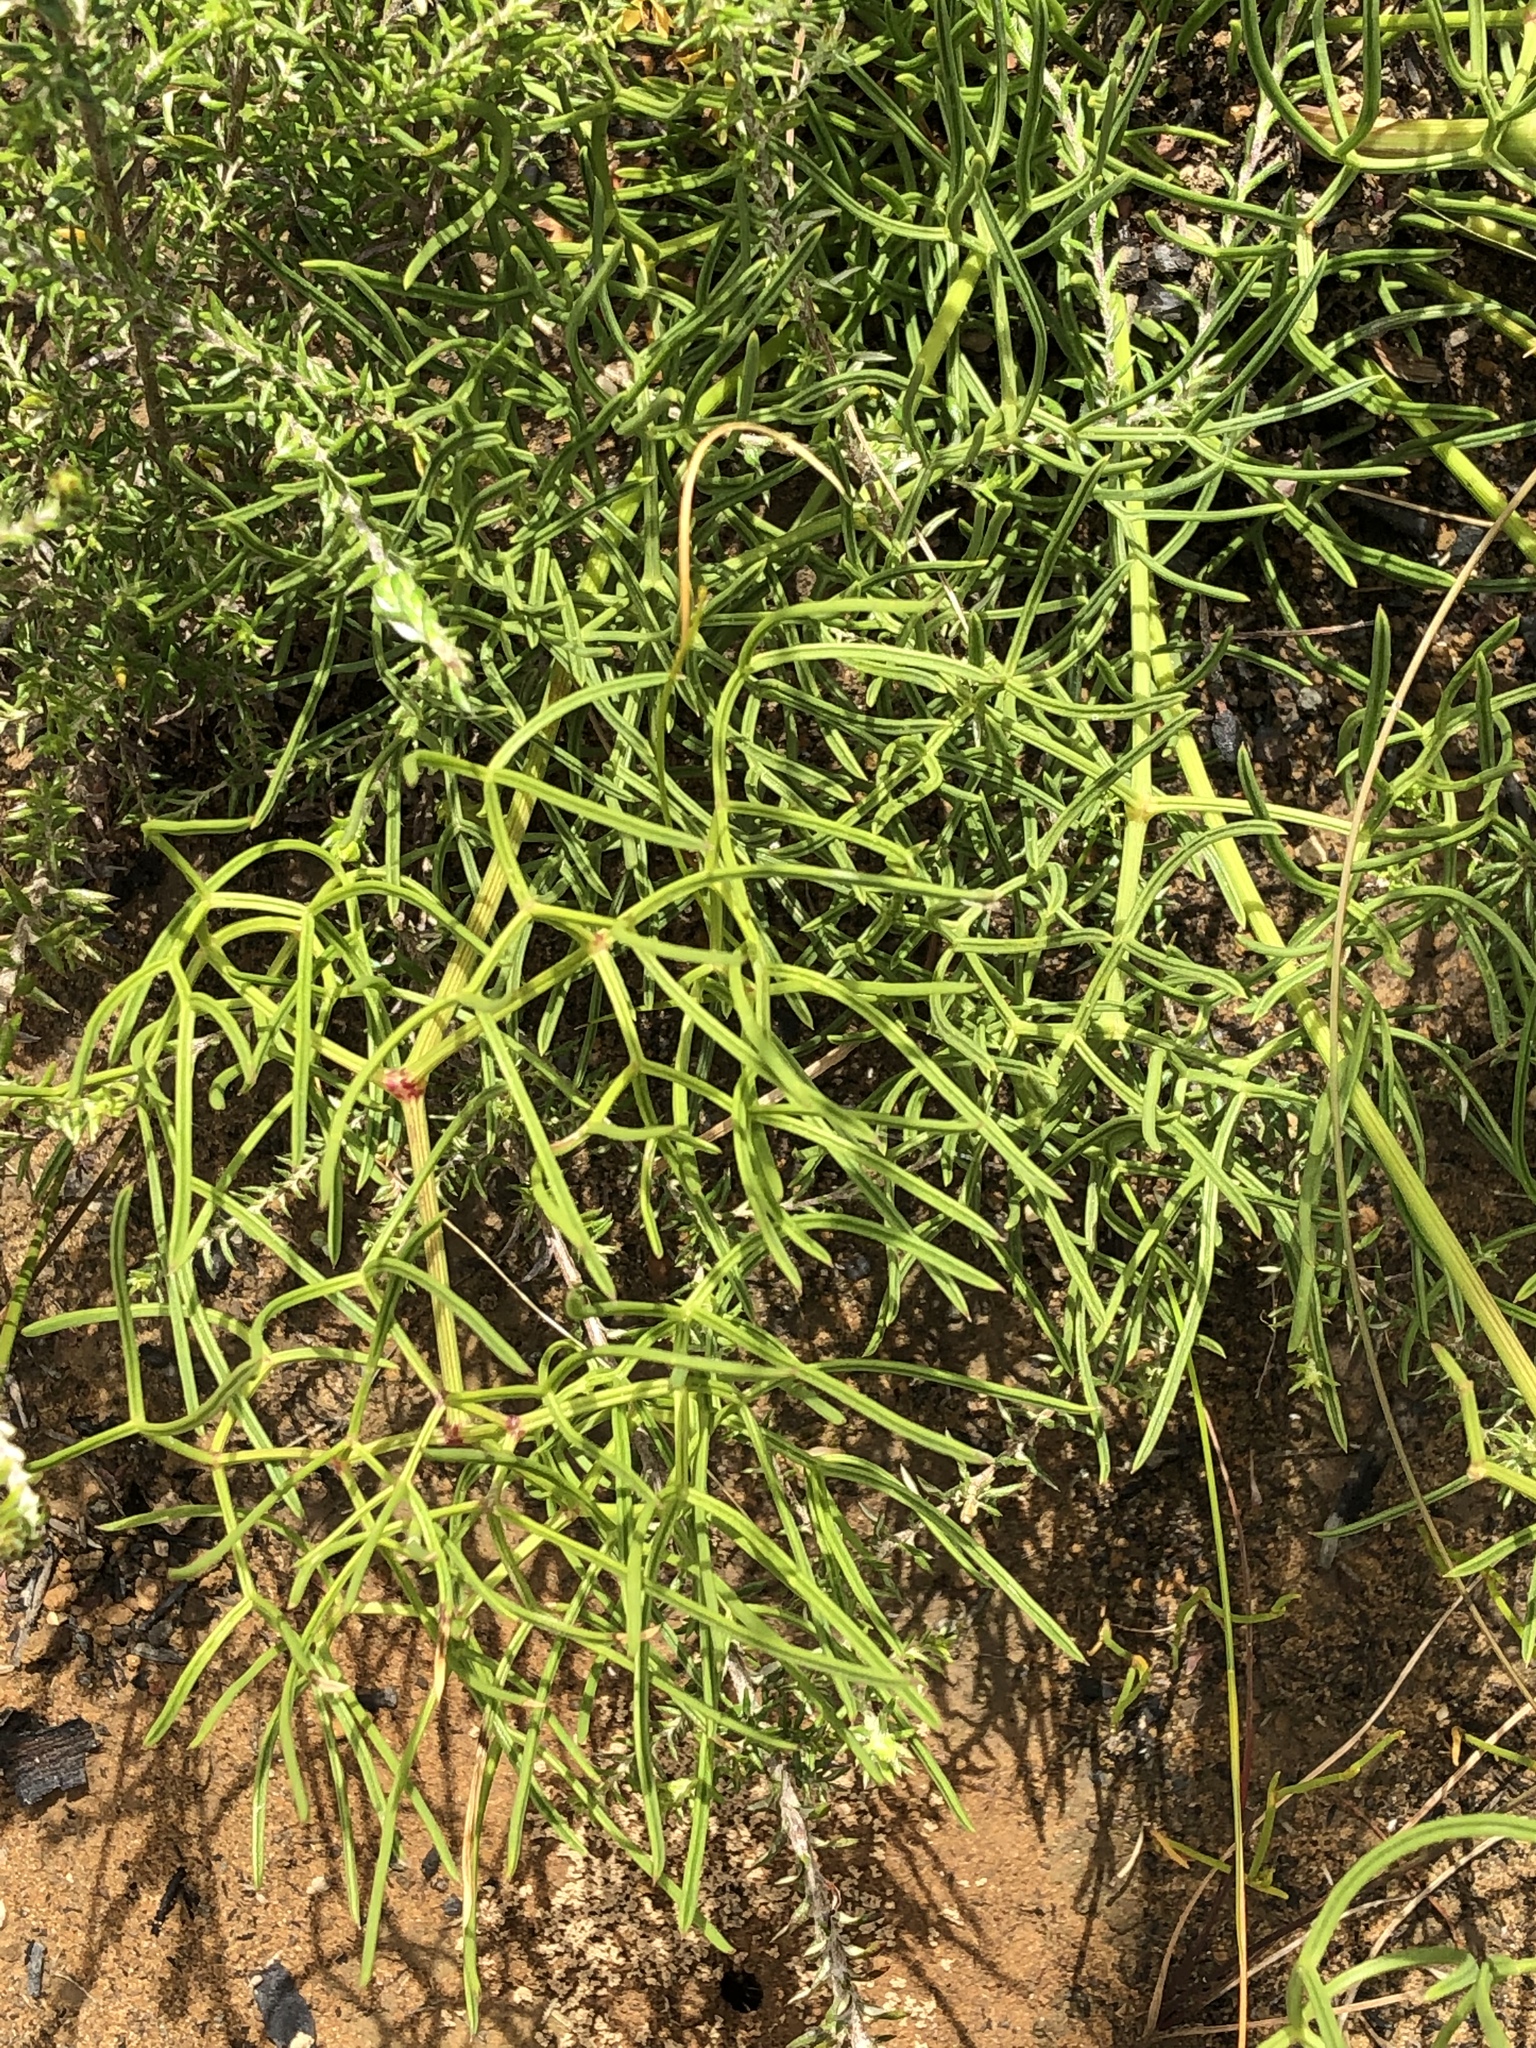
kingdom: Plantae
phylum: Tracheophyta
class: Magnoliopsida
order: Apiales
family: Apiaceae
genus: Nanobubon
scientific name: Nanobubon capillaceum
